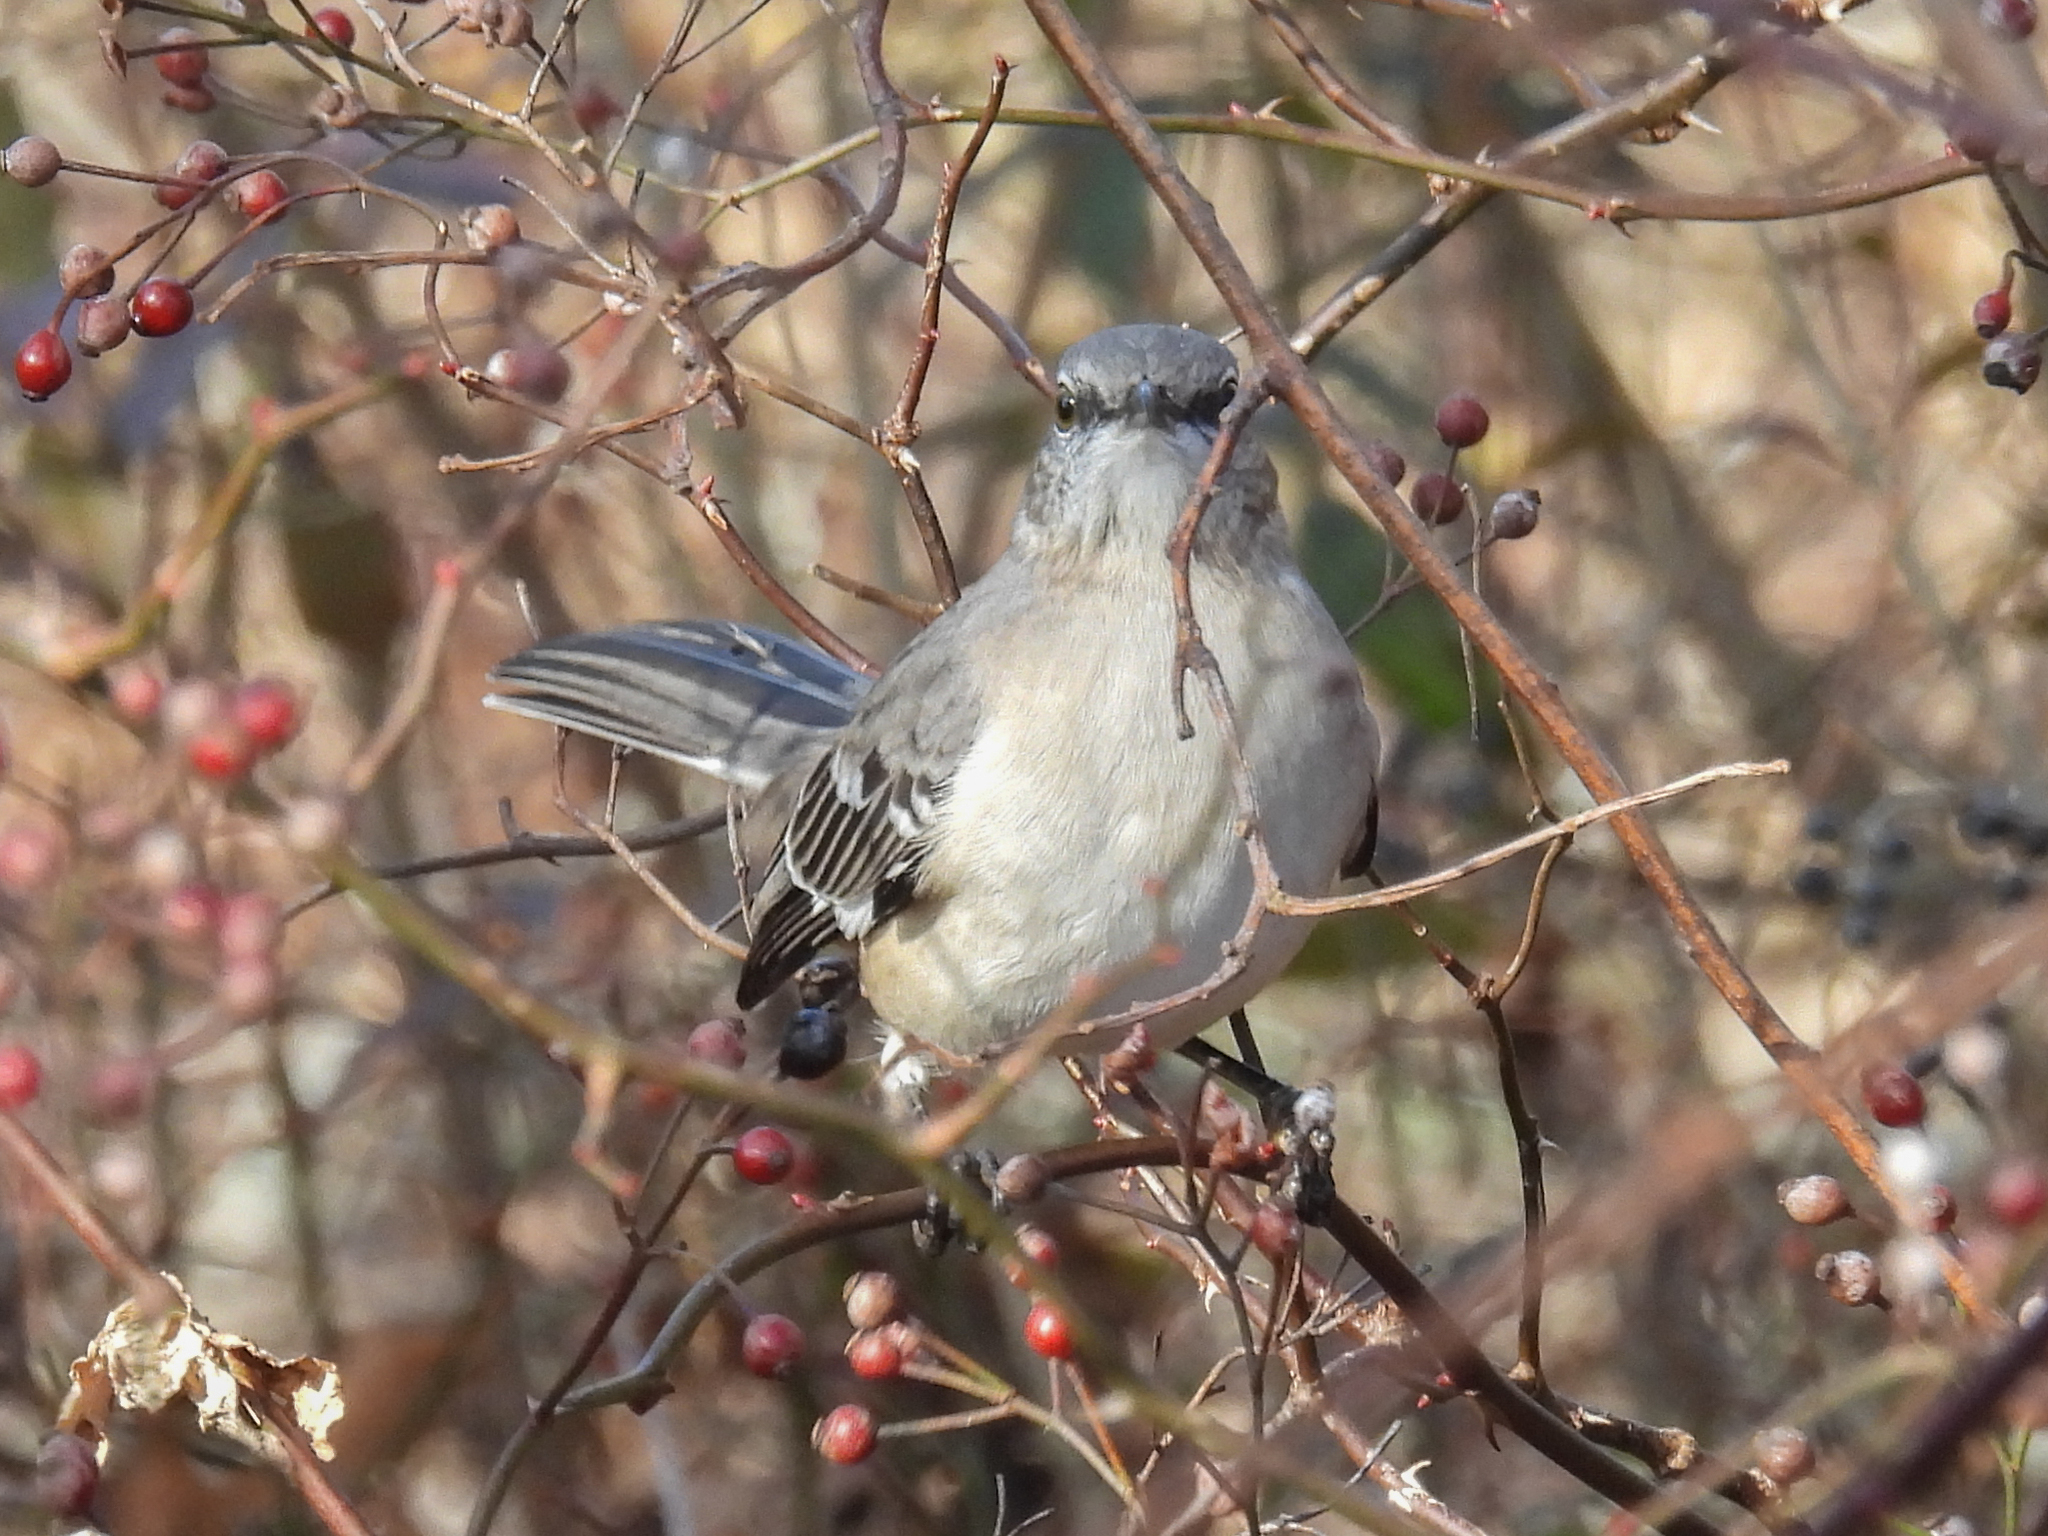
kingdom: Animalia
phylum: Chordata
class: Aves
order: Passeriformes
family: Mimidae
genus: Mimus
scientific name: Mimus polyglottos
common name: Northern mockingbird
